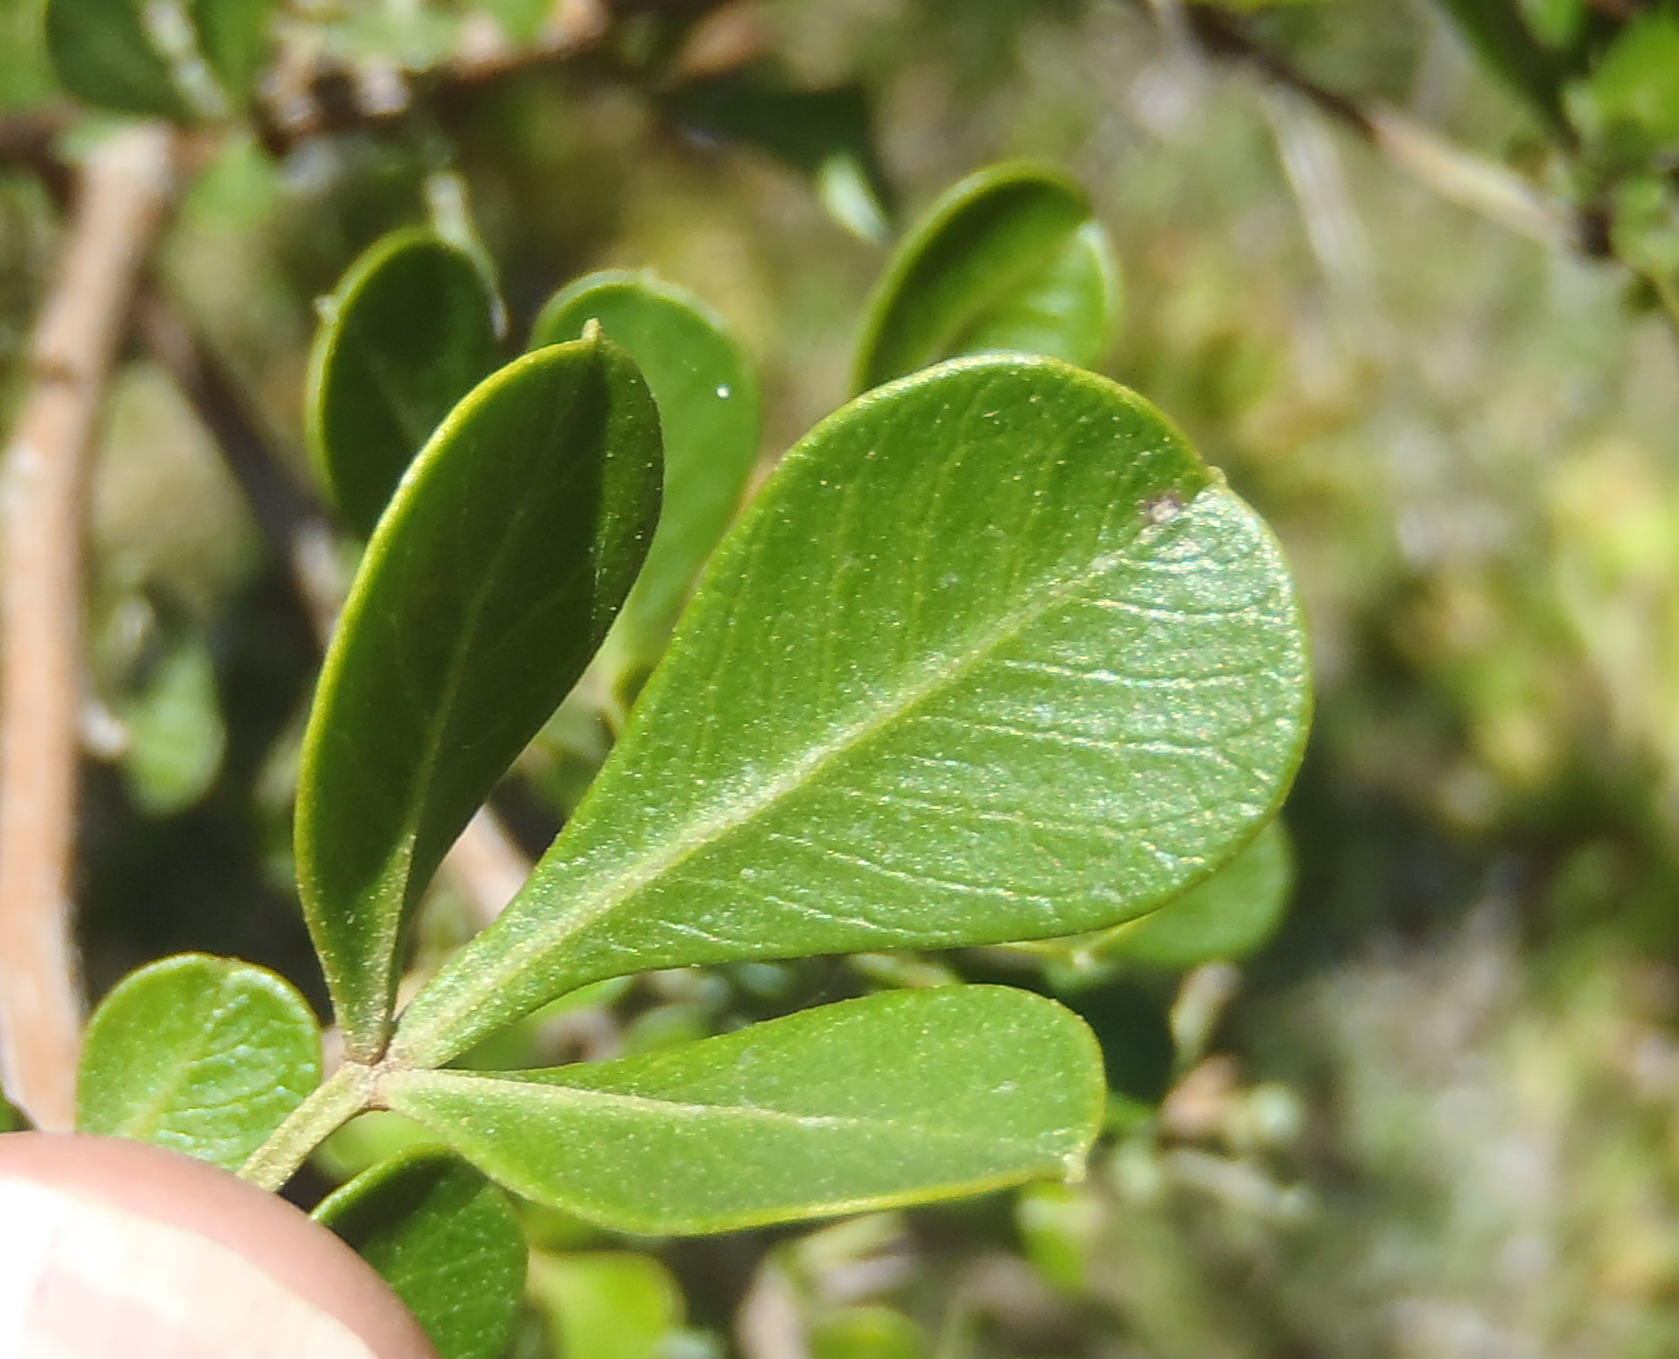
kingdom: Plantae
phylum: Tracheophyta
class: Magnoliopsida
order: Sapindales
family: Anacardiaceae
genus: Searsia
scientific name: Searsia glauca
